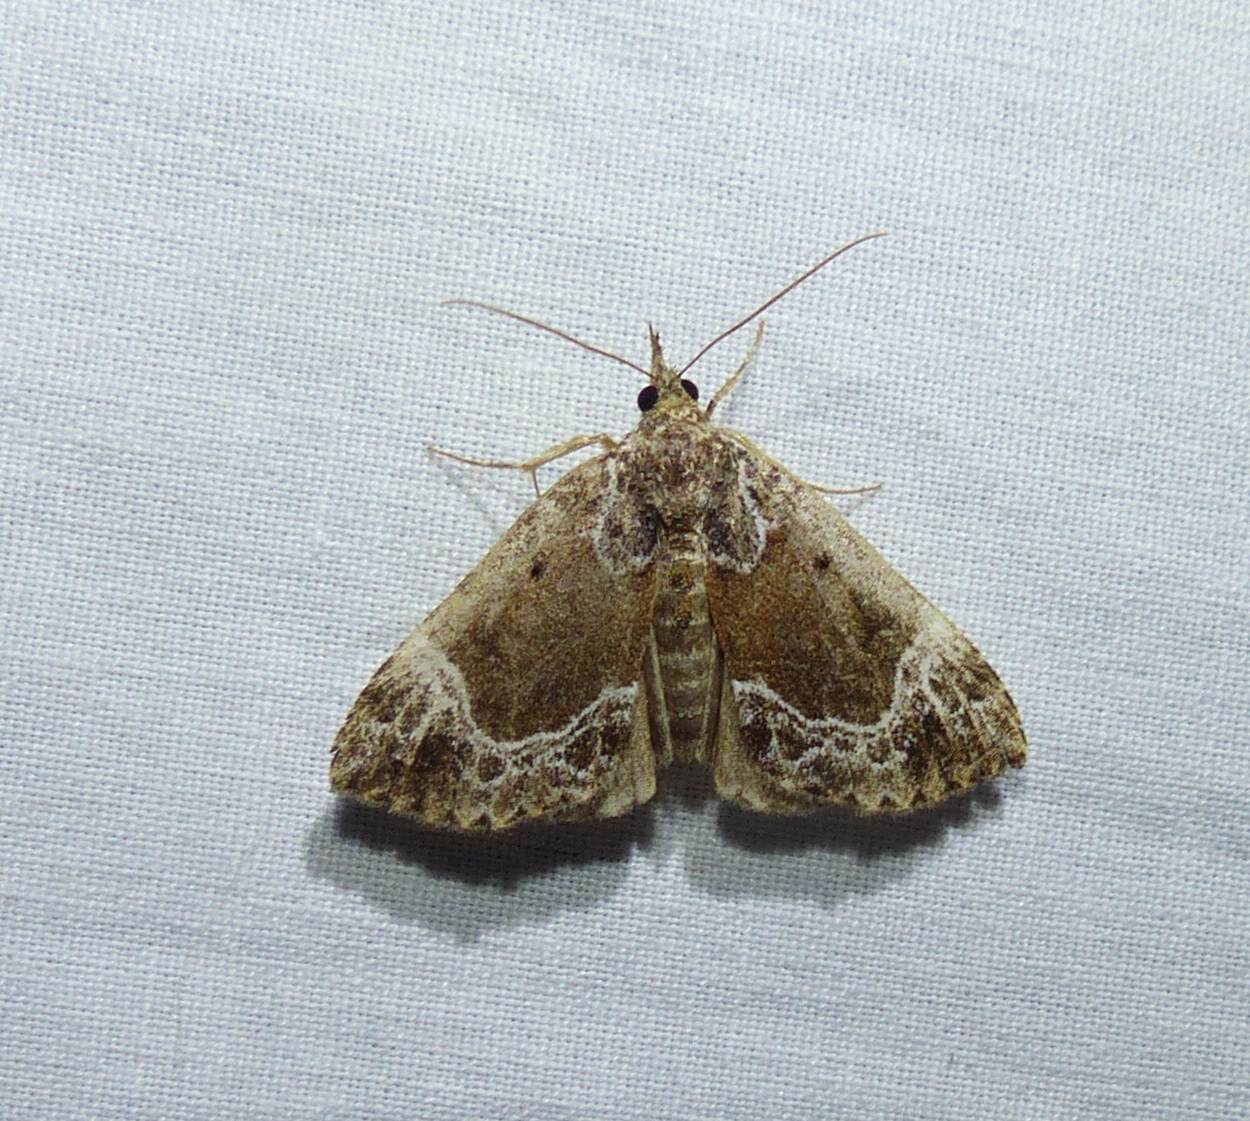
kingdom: Animalia
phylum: Arthropoda
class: Insecta
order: Lepidoptera
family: Erebidae
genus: Hypena
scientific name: Hypena abalienalis
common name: White-lined snout
